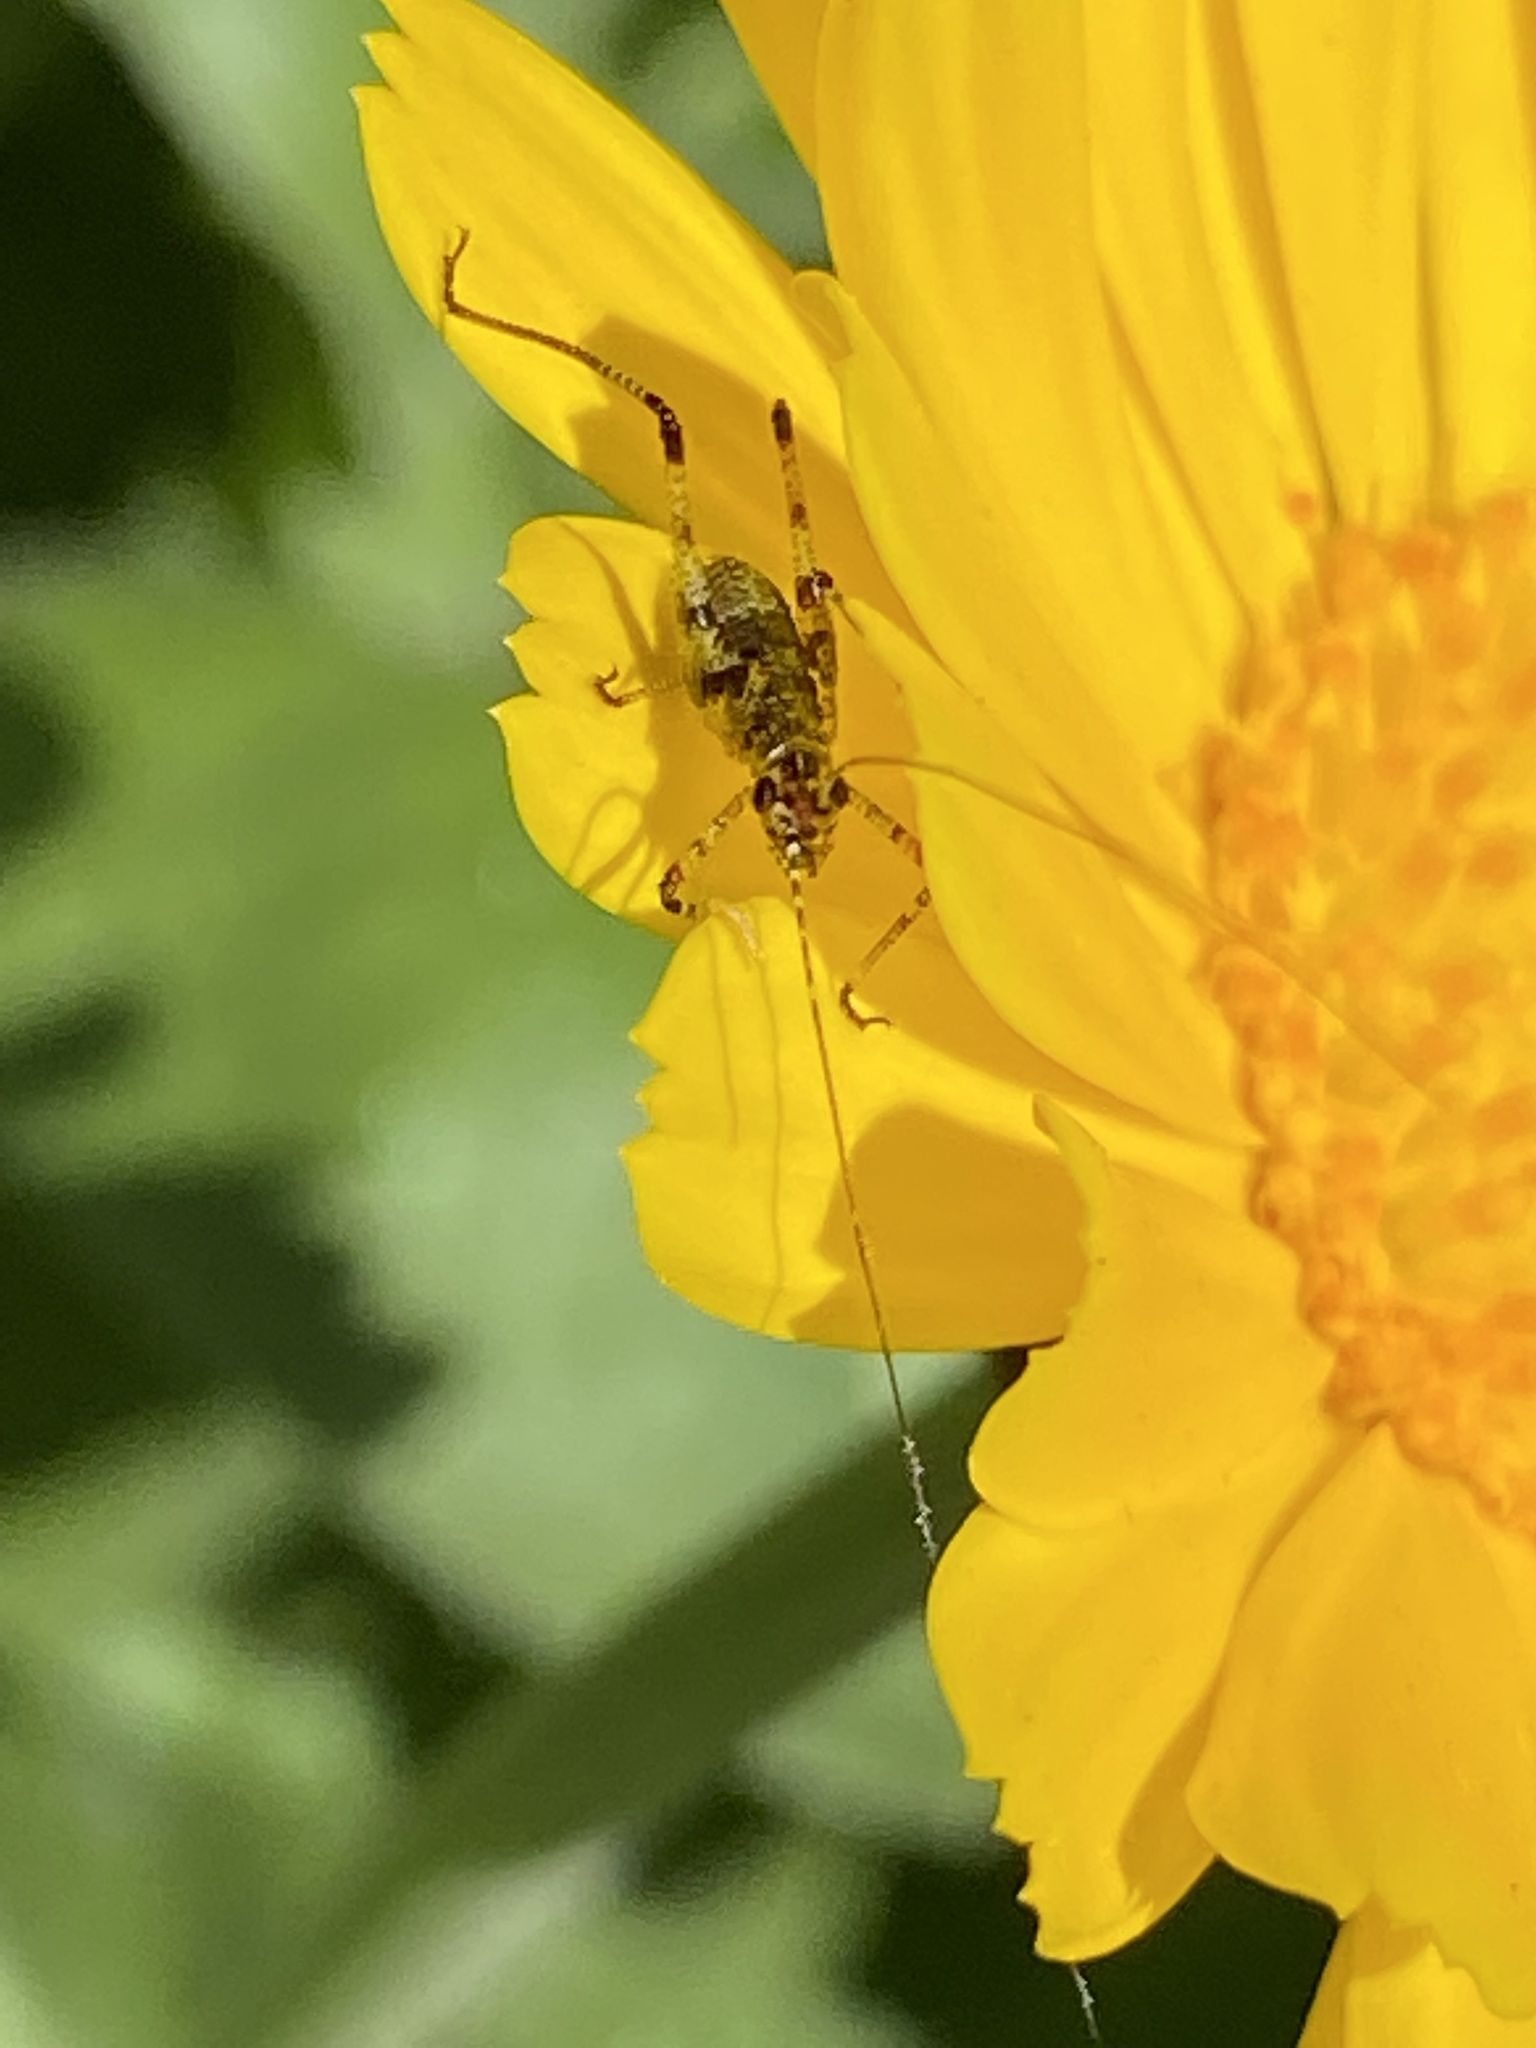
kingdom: Animalia
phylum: Arthropoda
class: Insecta
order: Orthoptera
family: Tettigoniidae
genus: Phaneroptera
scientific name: Phaneroptera nana
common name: Southern sickle bush-cricket
